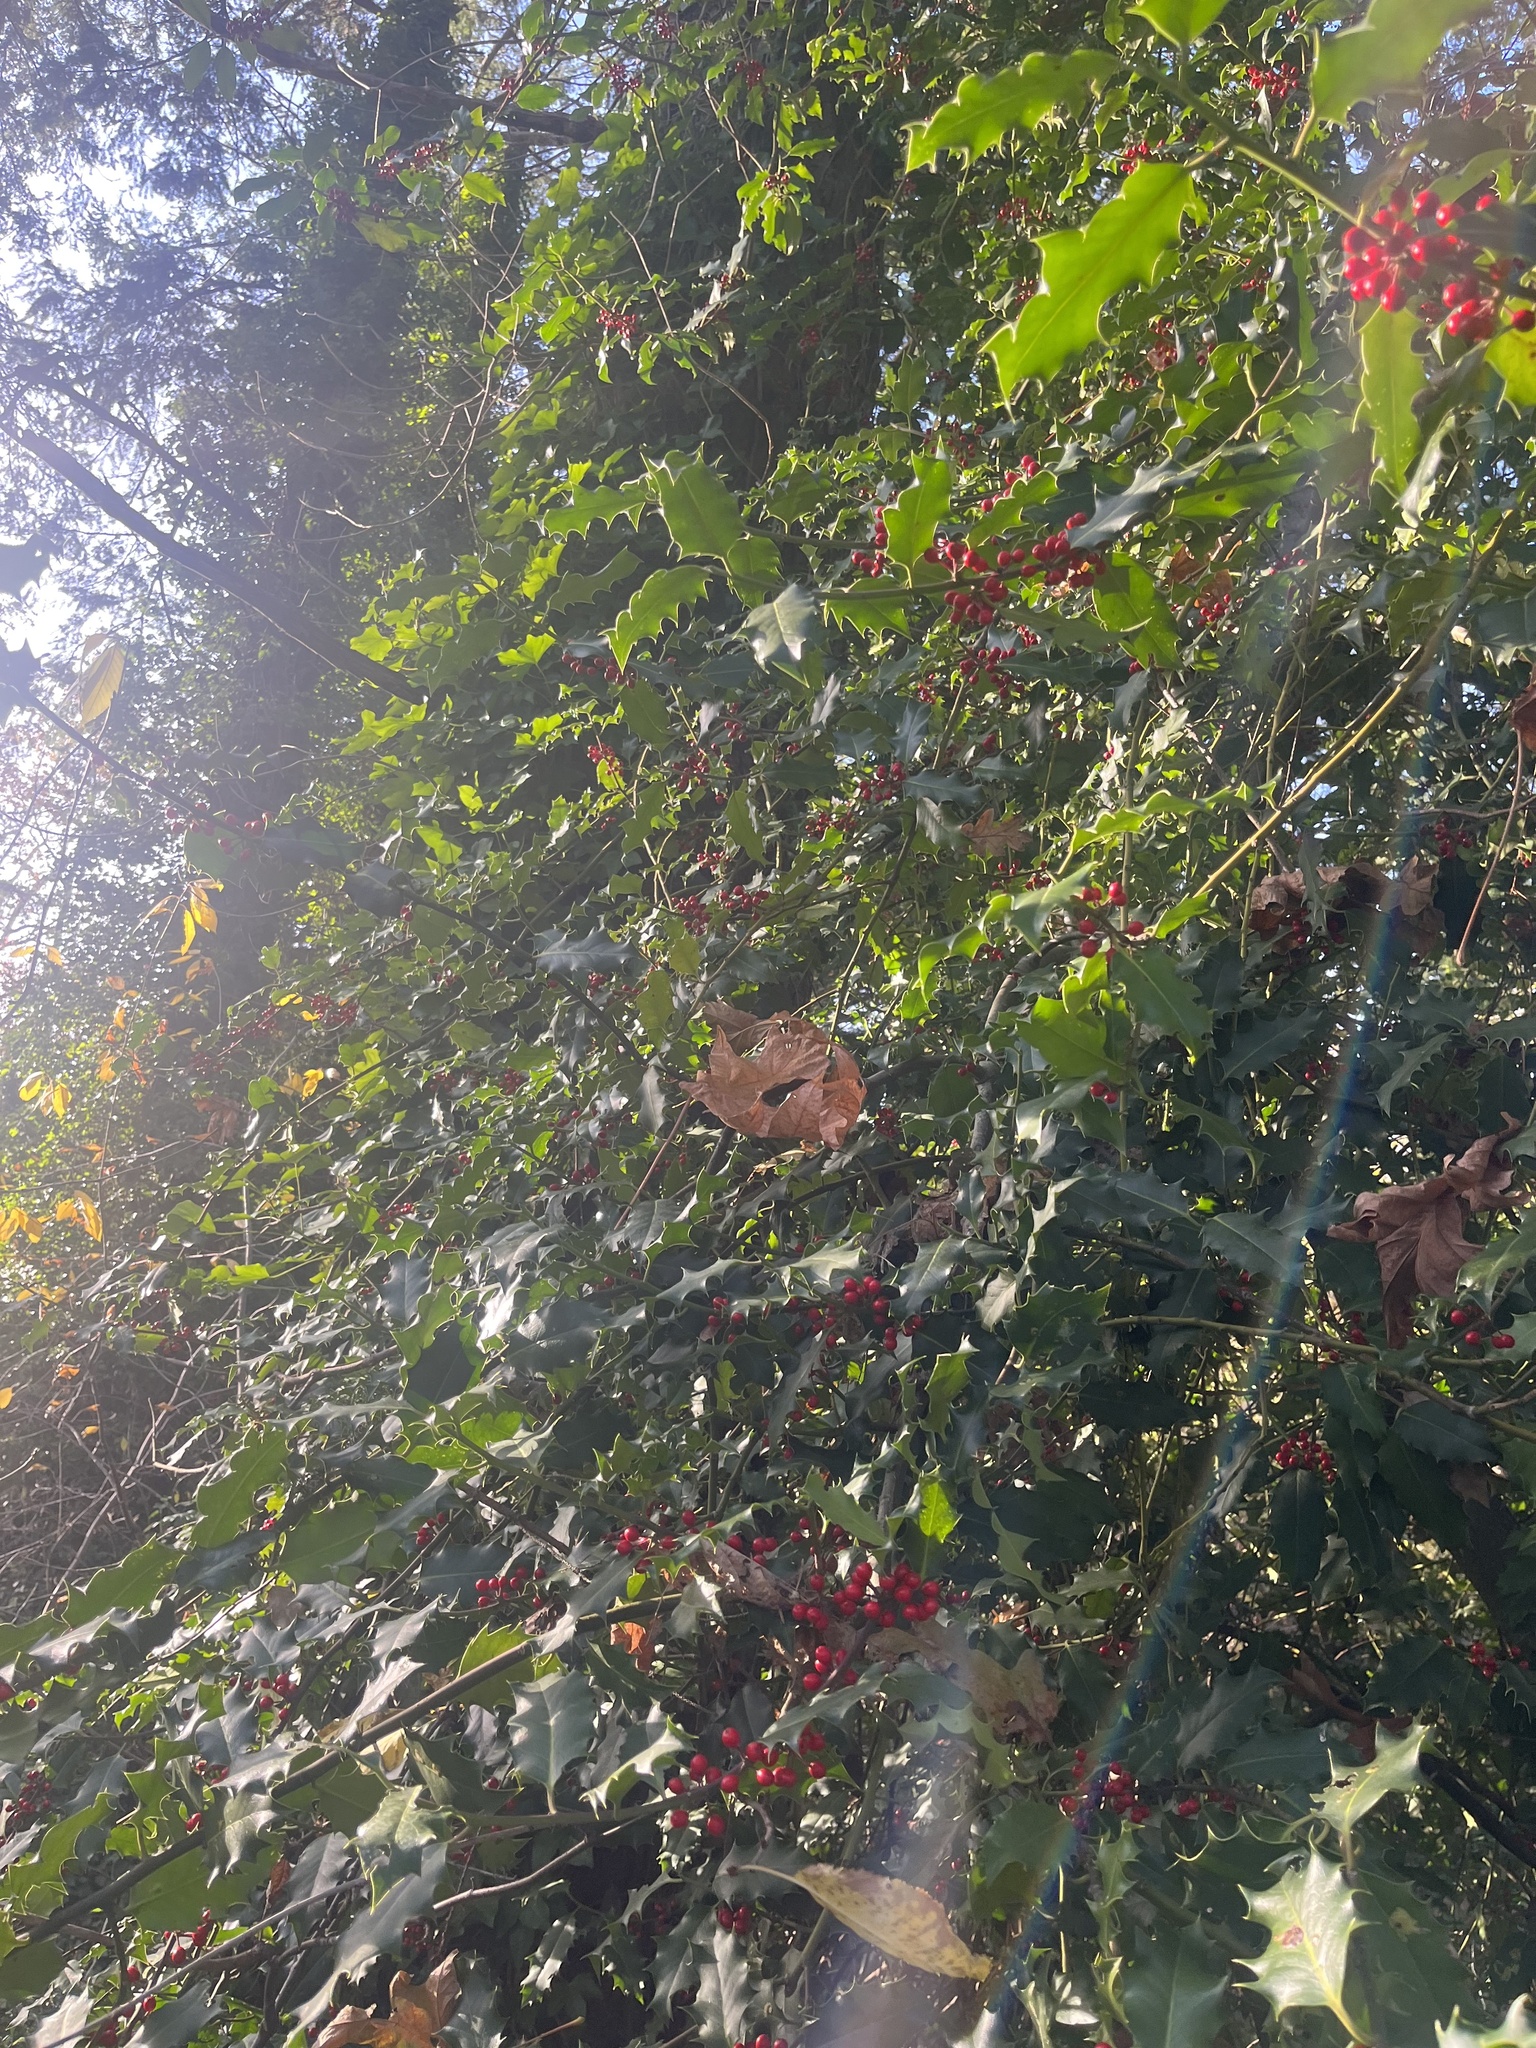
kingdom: Plantae
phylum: Tracheophyta
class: Magnoliopsida
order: Aquifoliales
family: Aquifoliaceae
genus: Ilex
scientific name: Ilex aquifolium
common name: English holly
